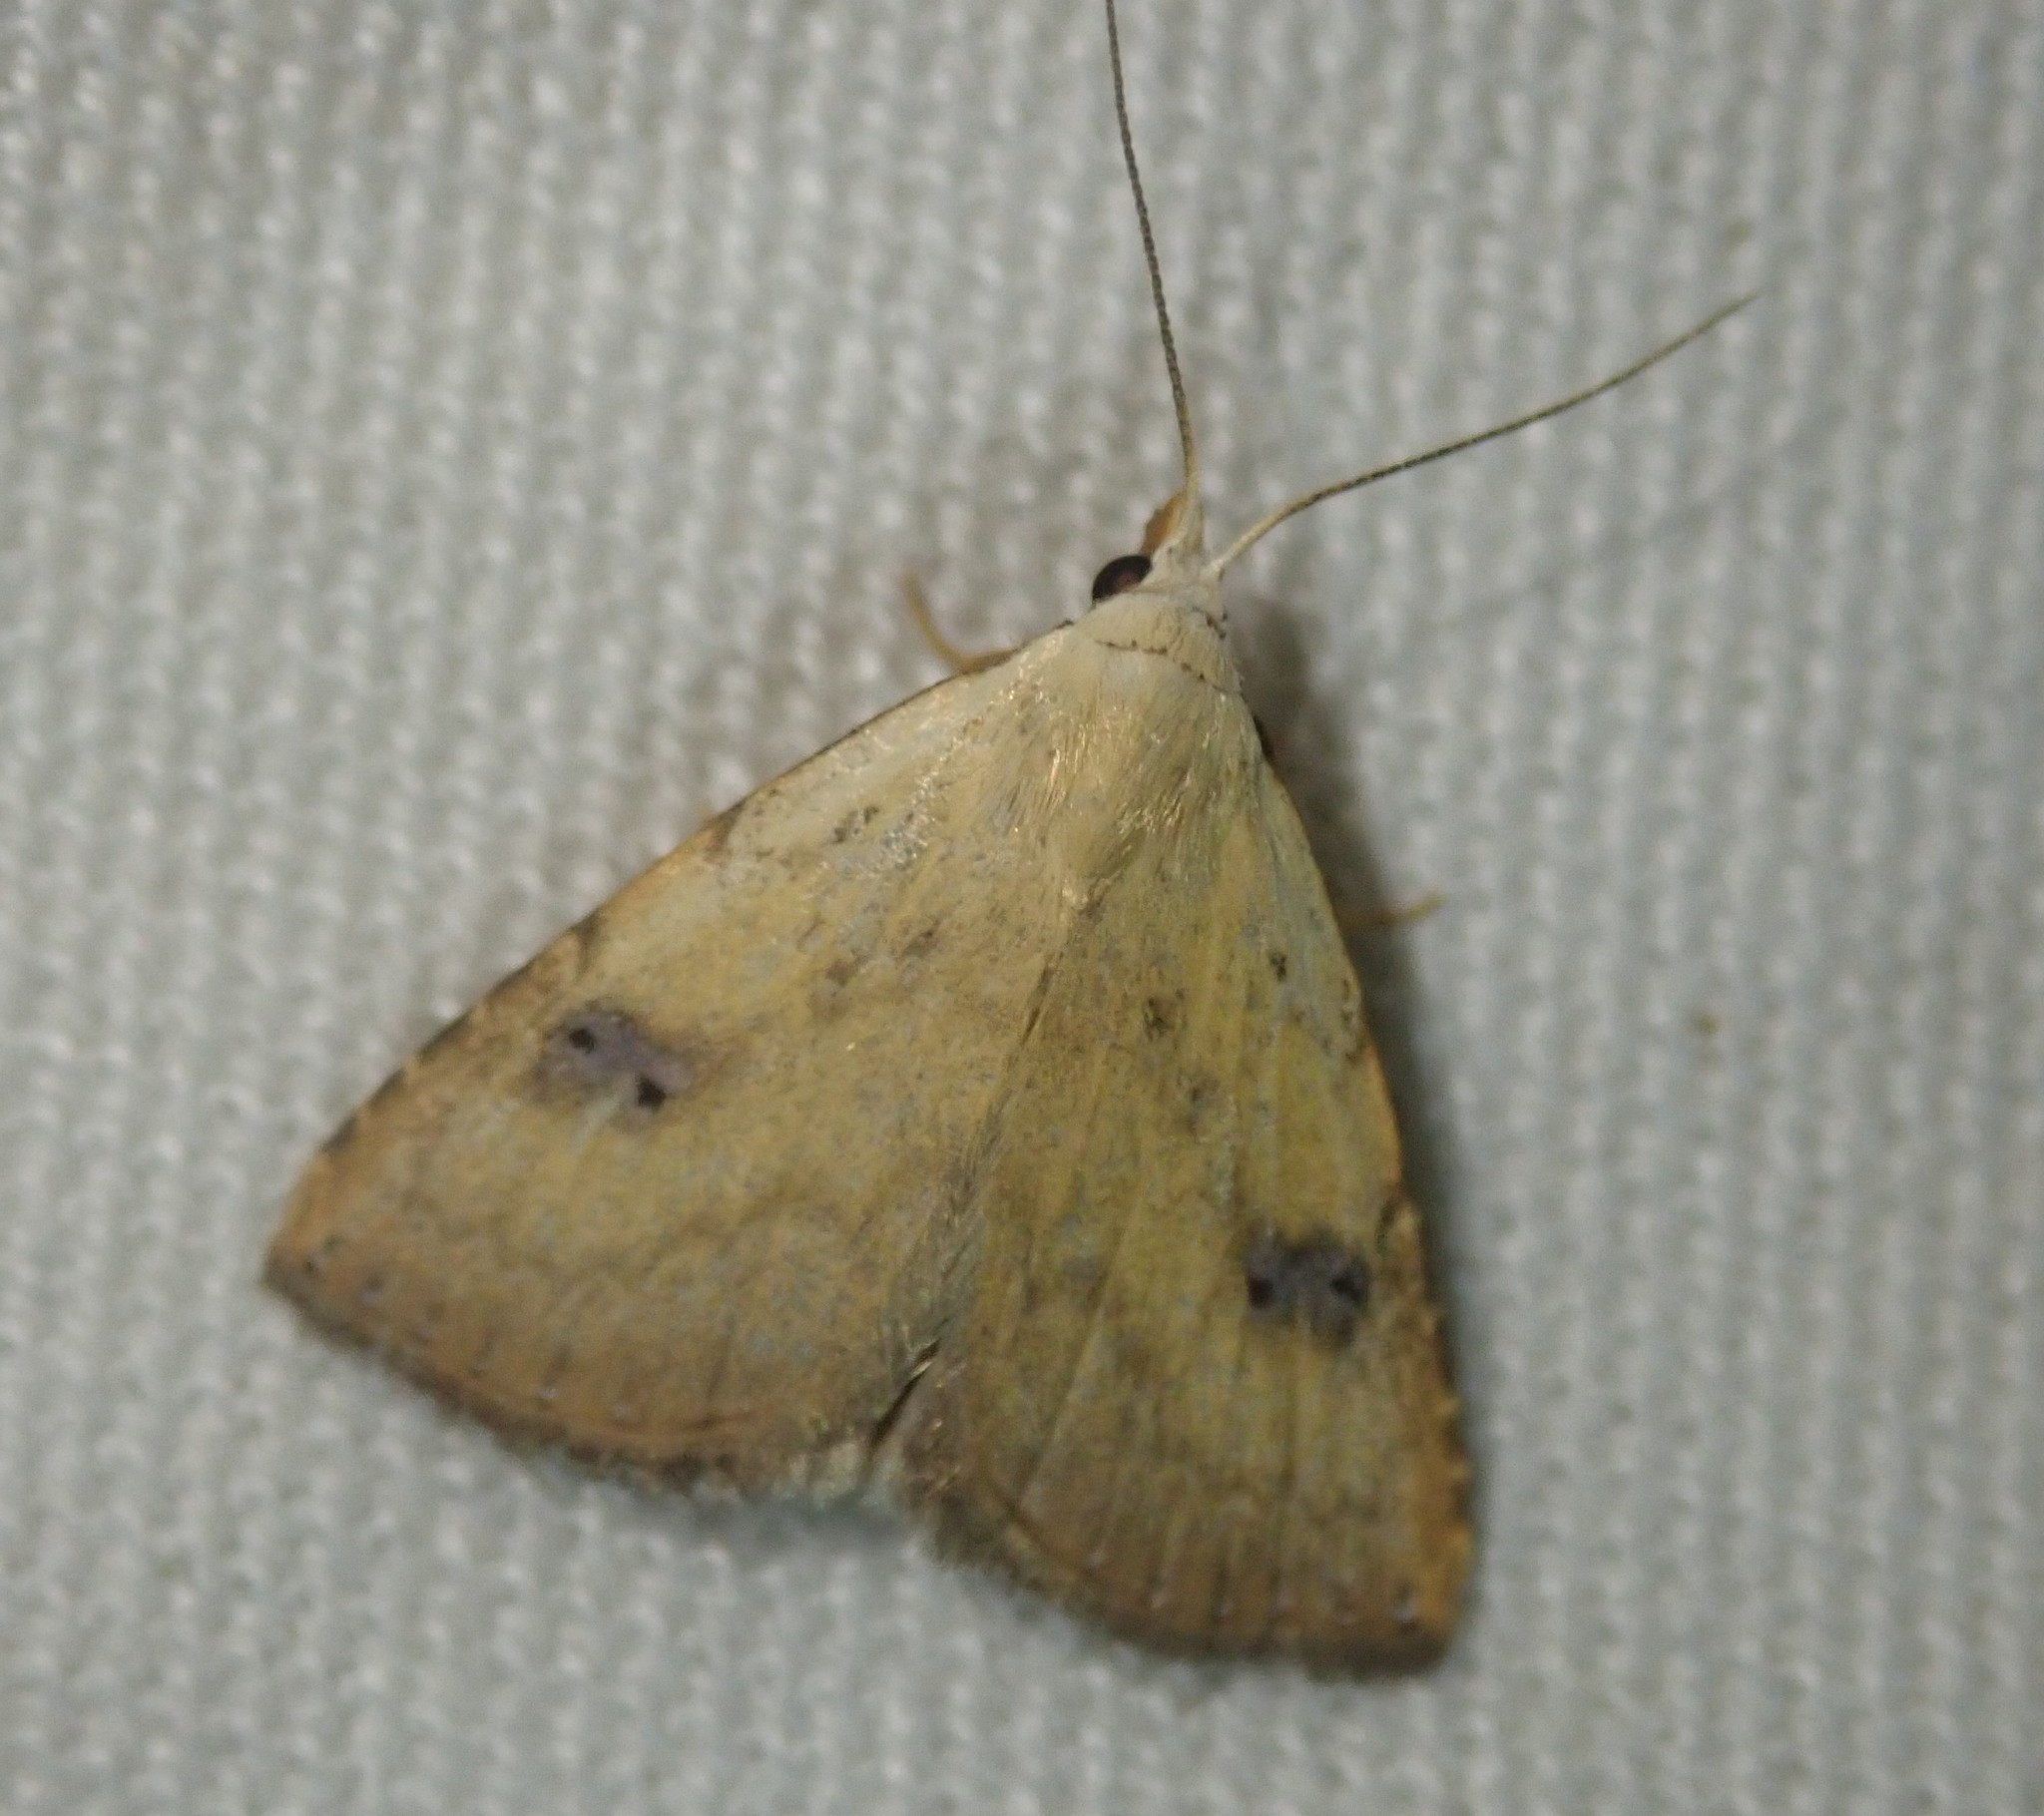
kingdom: Animalia
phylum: Arthropoda
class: Insecta
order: Lepidoptera
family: Erebidae
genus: Rivula
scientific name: Rivula sericealis
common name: Straw dot
